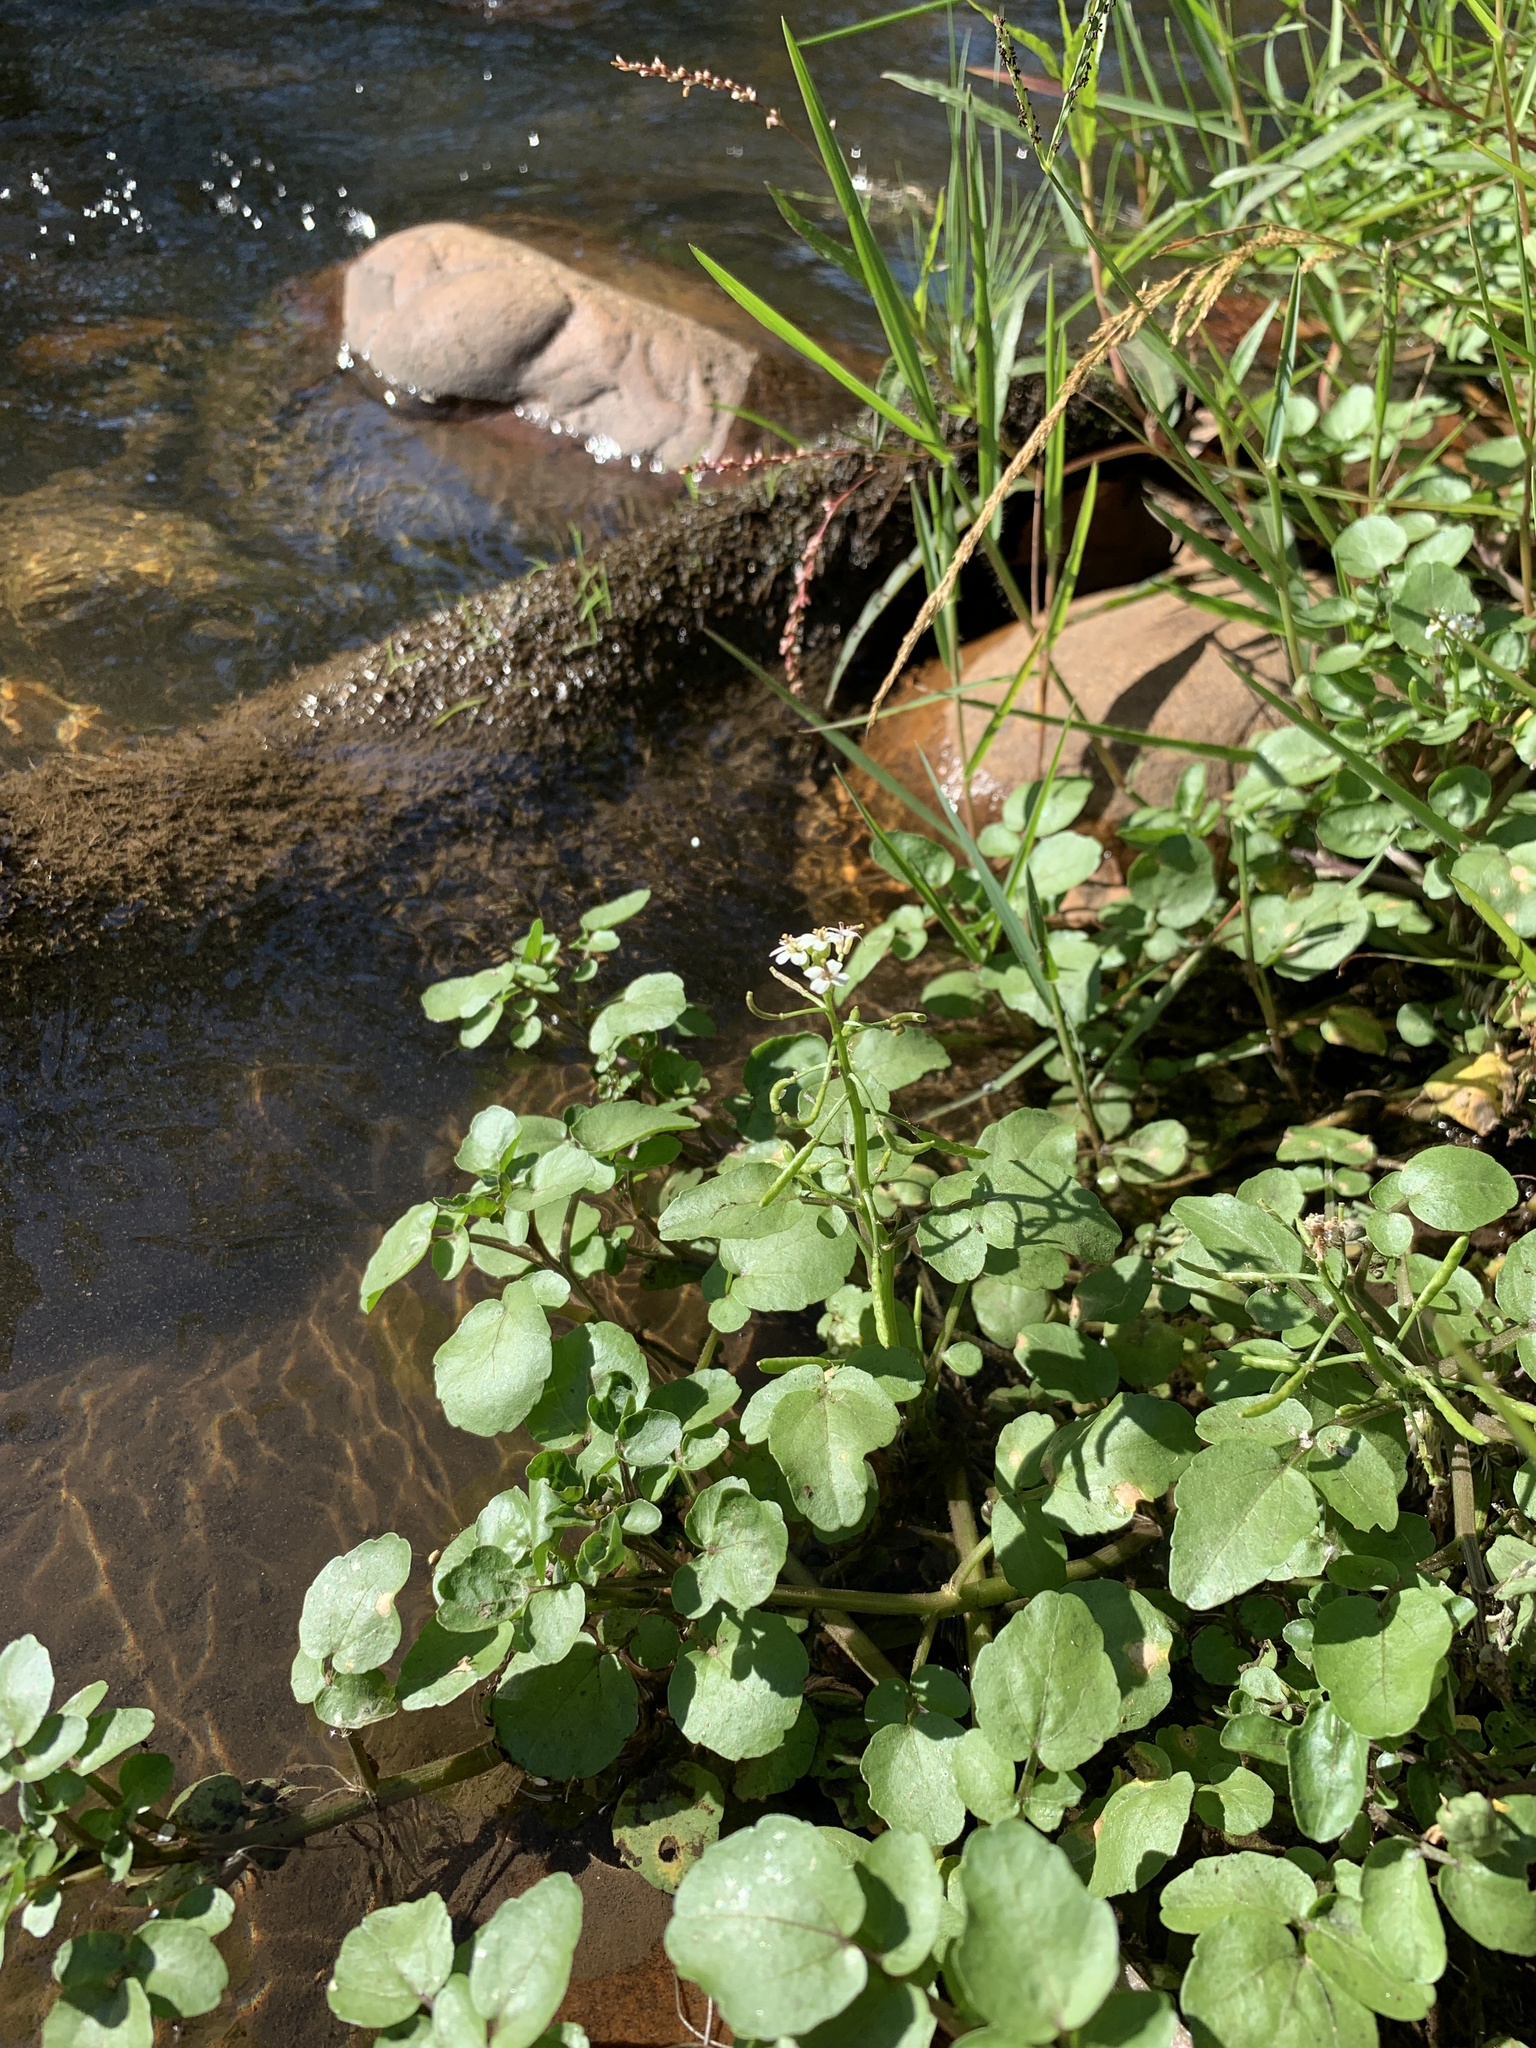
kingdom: Plantae
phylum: Tracheophyta
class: Magnoliopsida
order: Brassicales
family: Brassicaceae
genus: Nasturtium
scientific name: Nasturtium officinale
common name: Watercress
